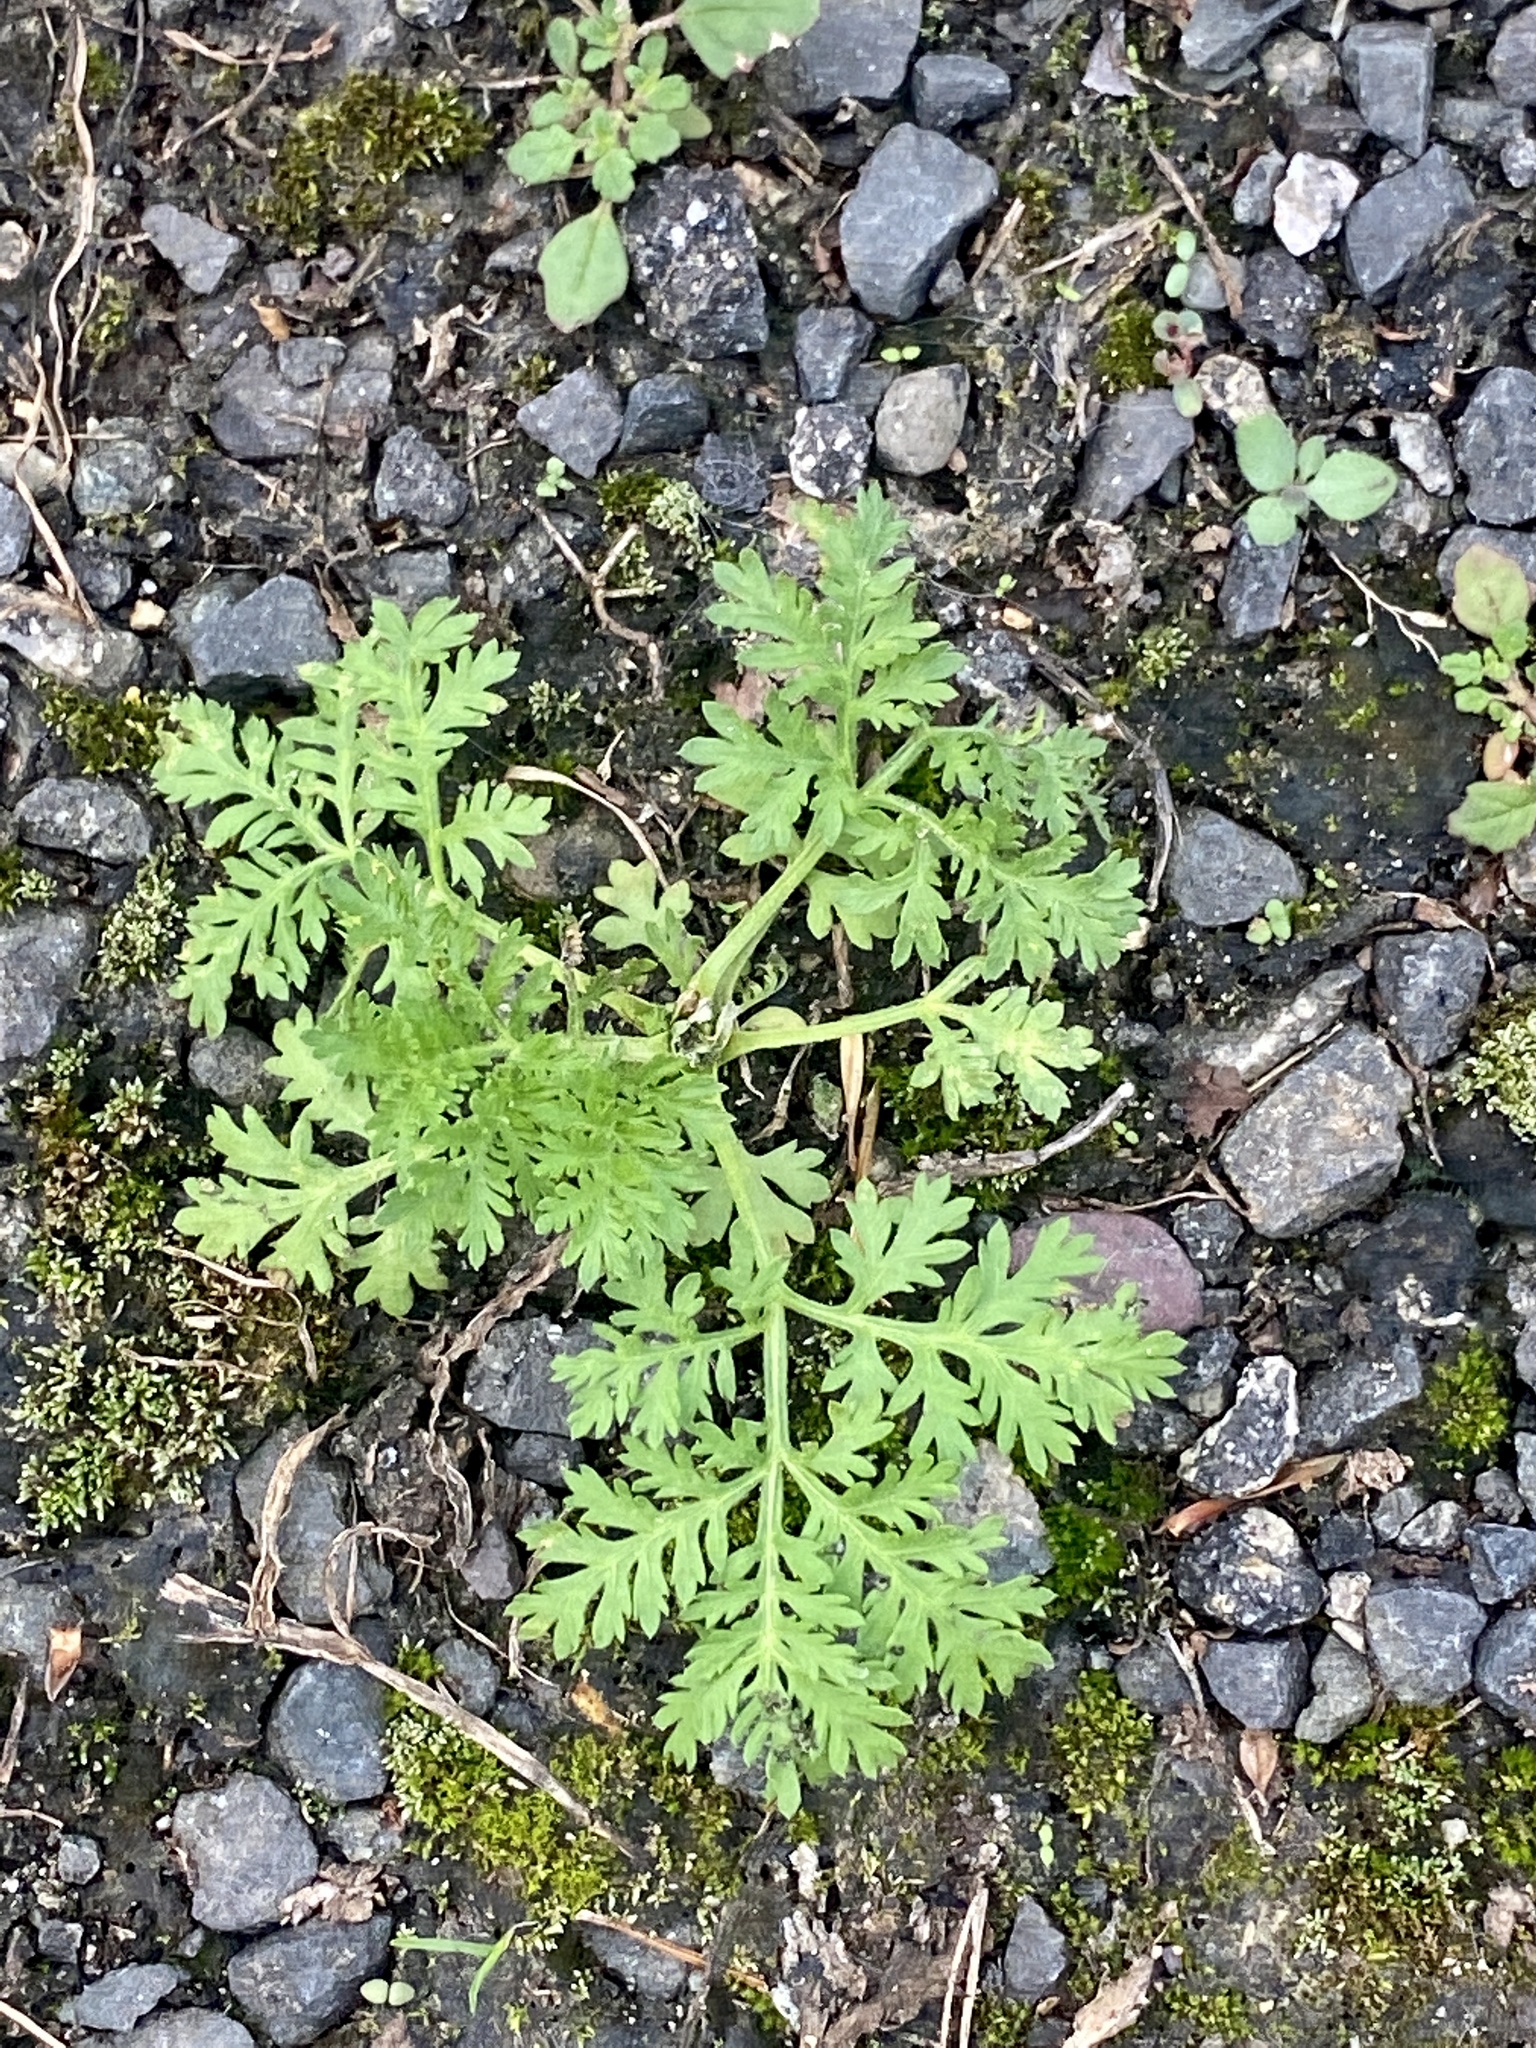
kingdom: Plantae
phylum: Tracheophyta
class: Magnoliopsida
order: Asterales
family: Asteraceae
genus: Artemisia
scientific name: Artemisia annua
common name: Sweet sagewort
